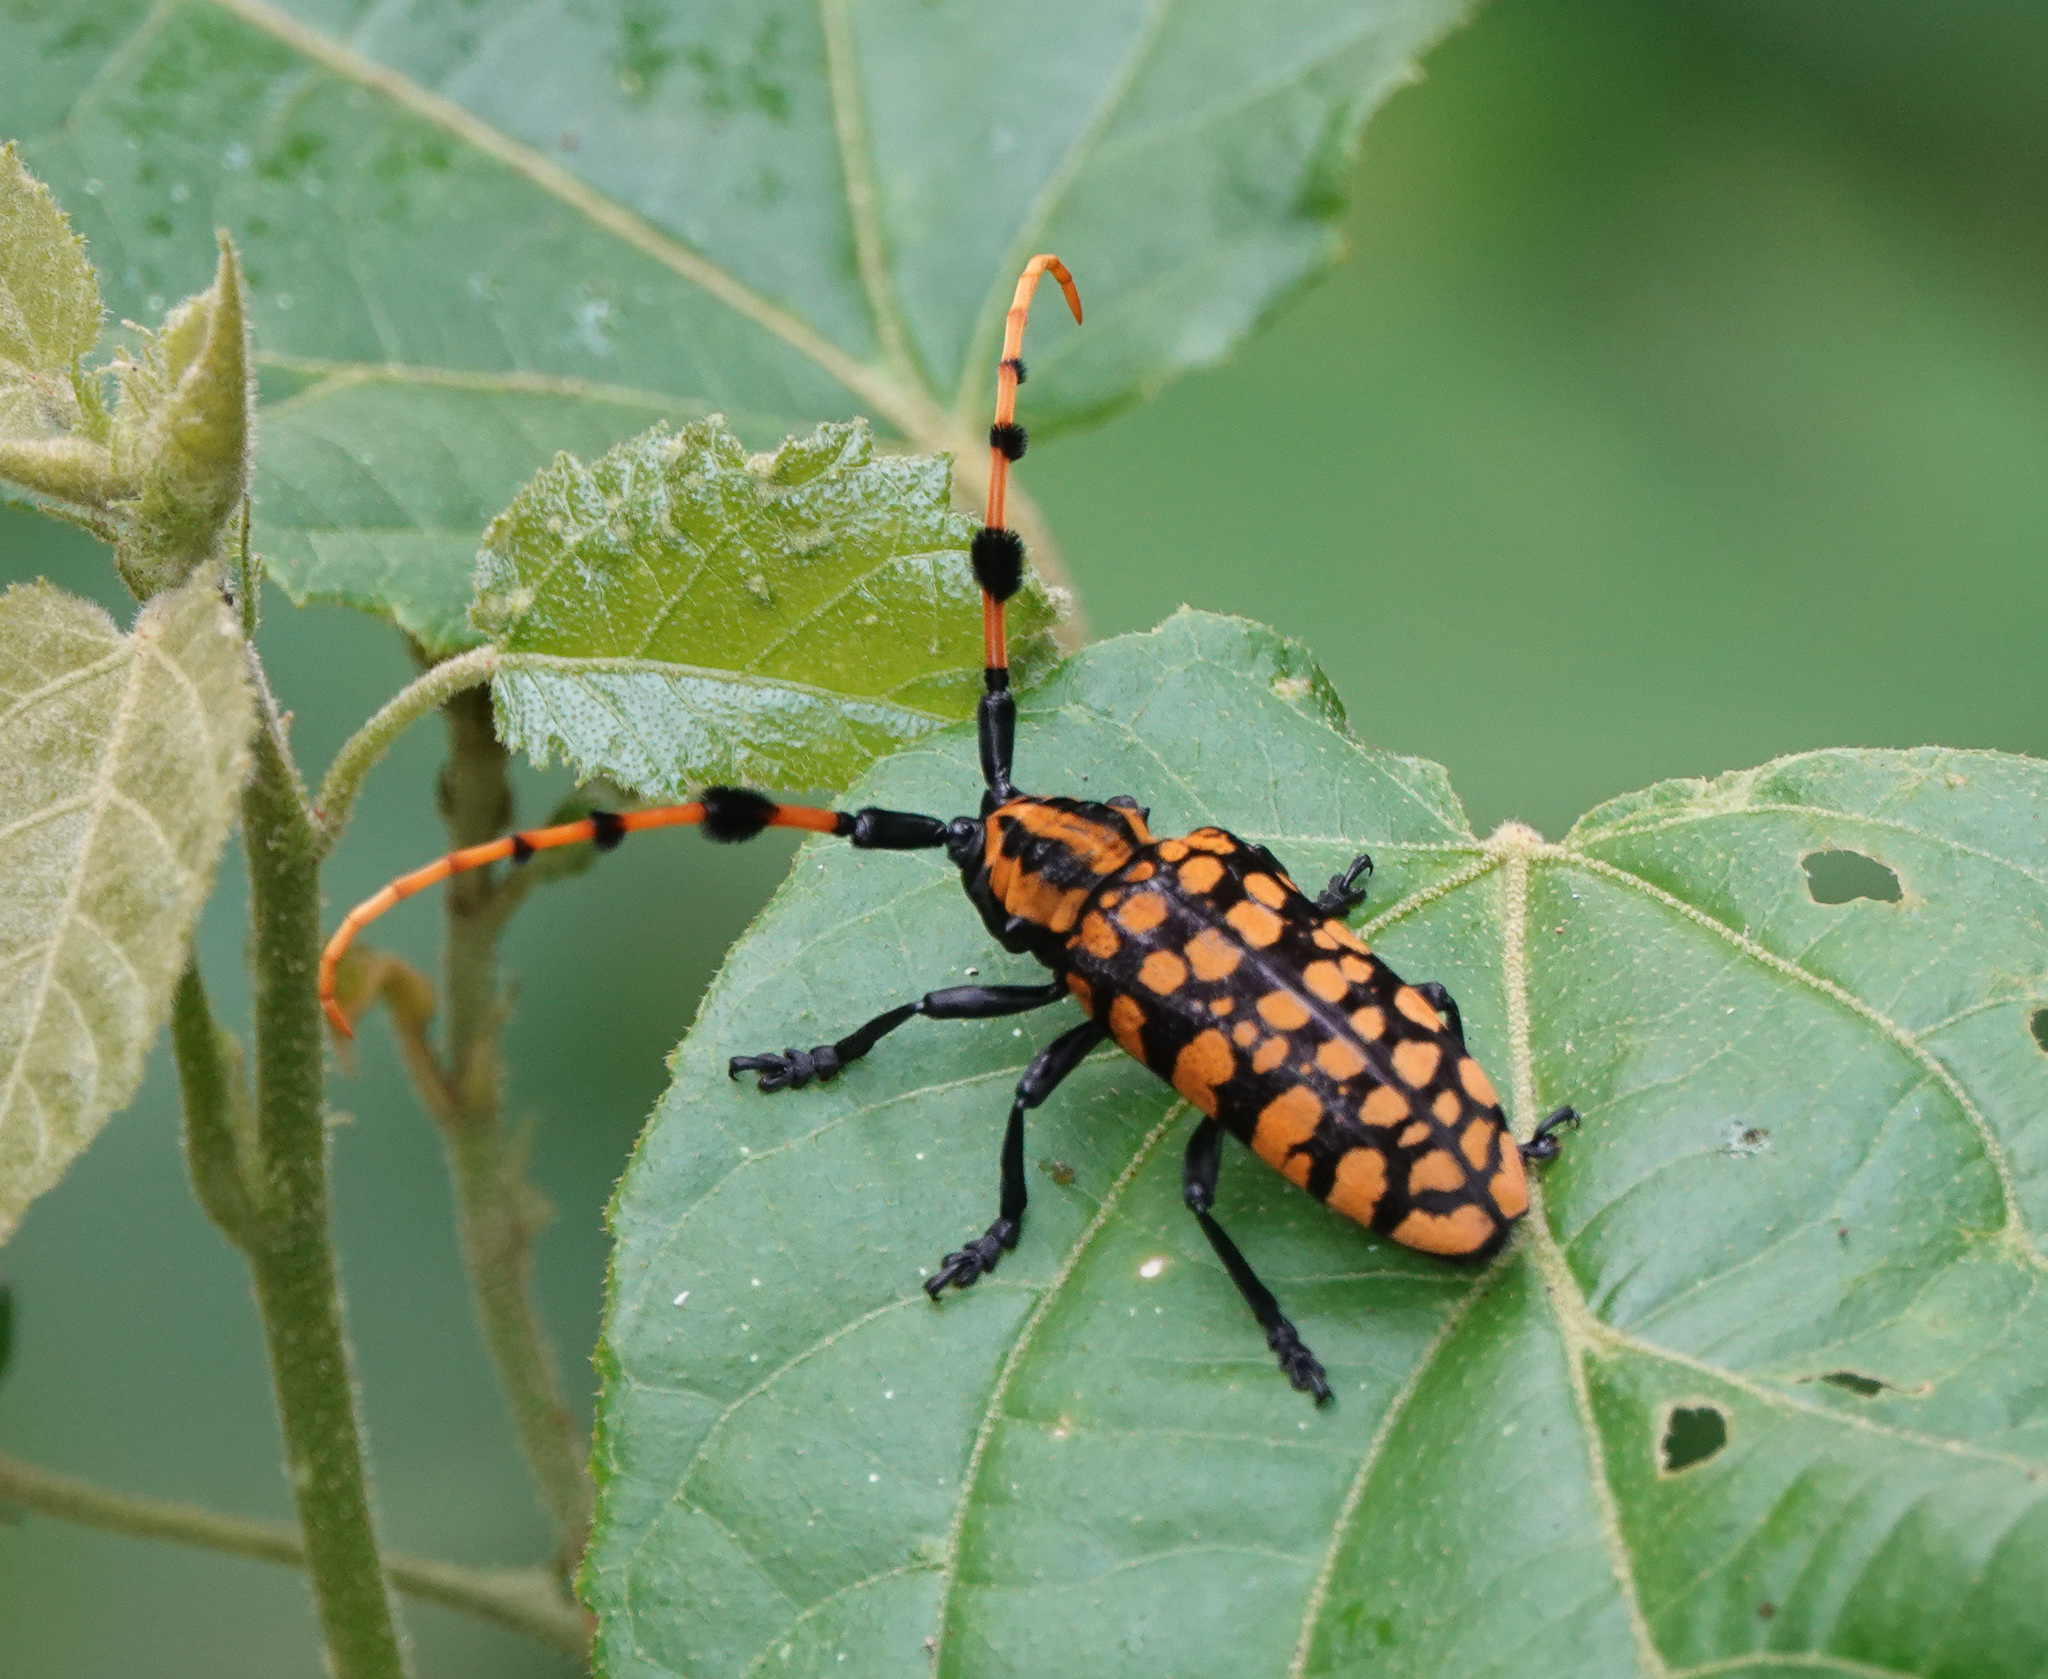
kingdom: Animalia
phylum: Arthropoda
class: Insecta
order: Coleoptera
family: Cerambycidae
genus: Aristobia
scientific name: Aristobia reticulator
